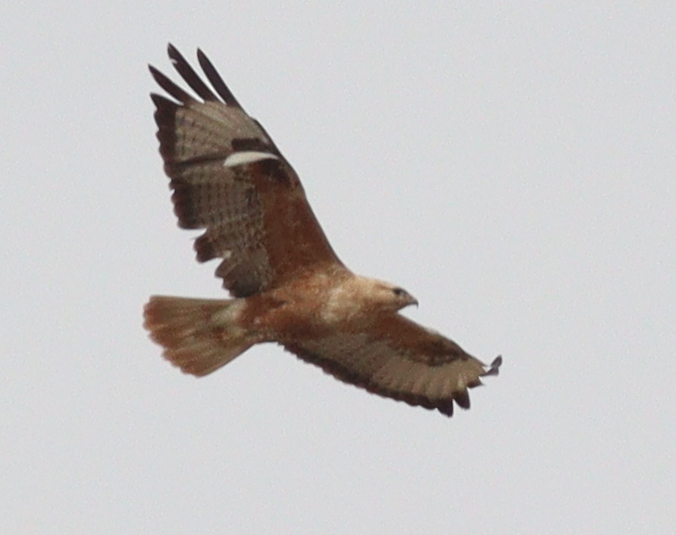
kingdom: Animalia
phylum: Chordata
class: Aves
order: Accipitriformes
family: Accipitridae
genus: Buteo
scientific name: Buteo rufinus
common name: Long-legged buzzard
